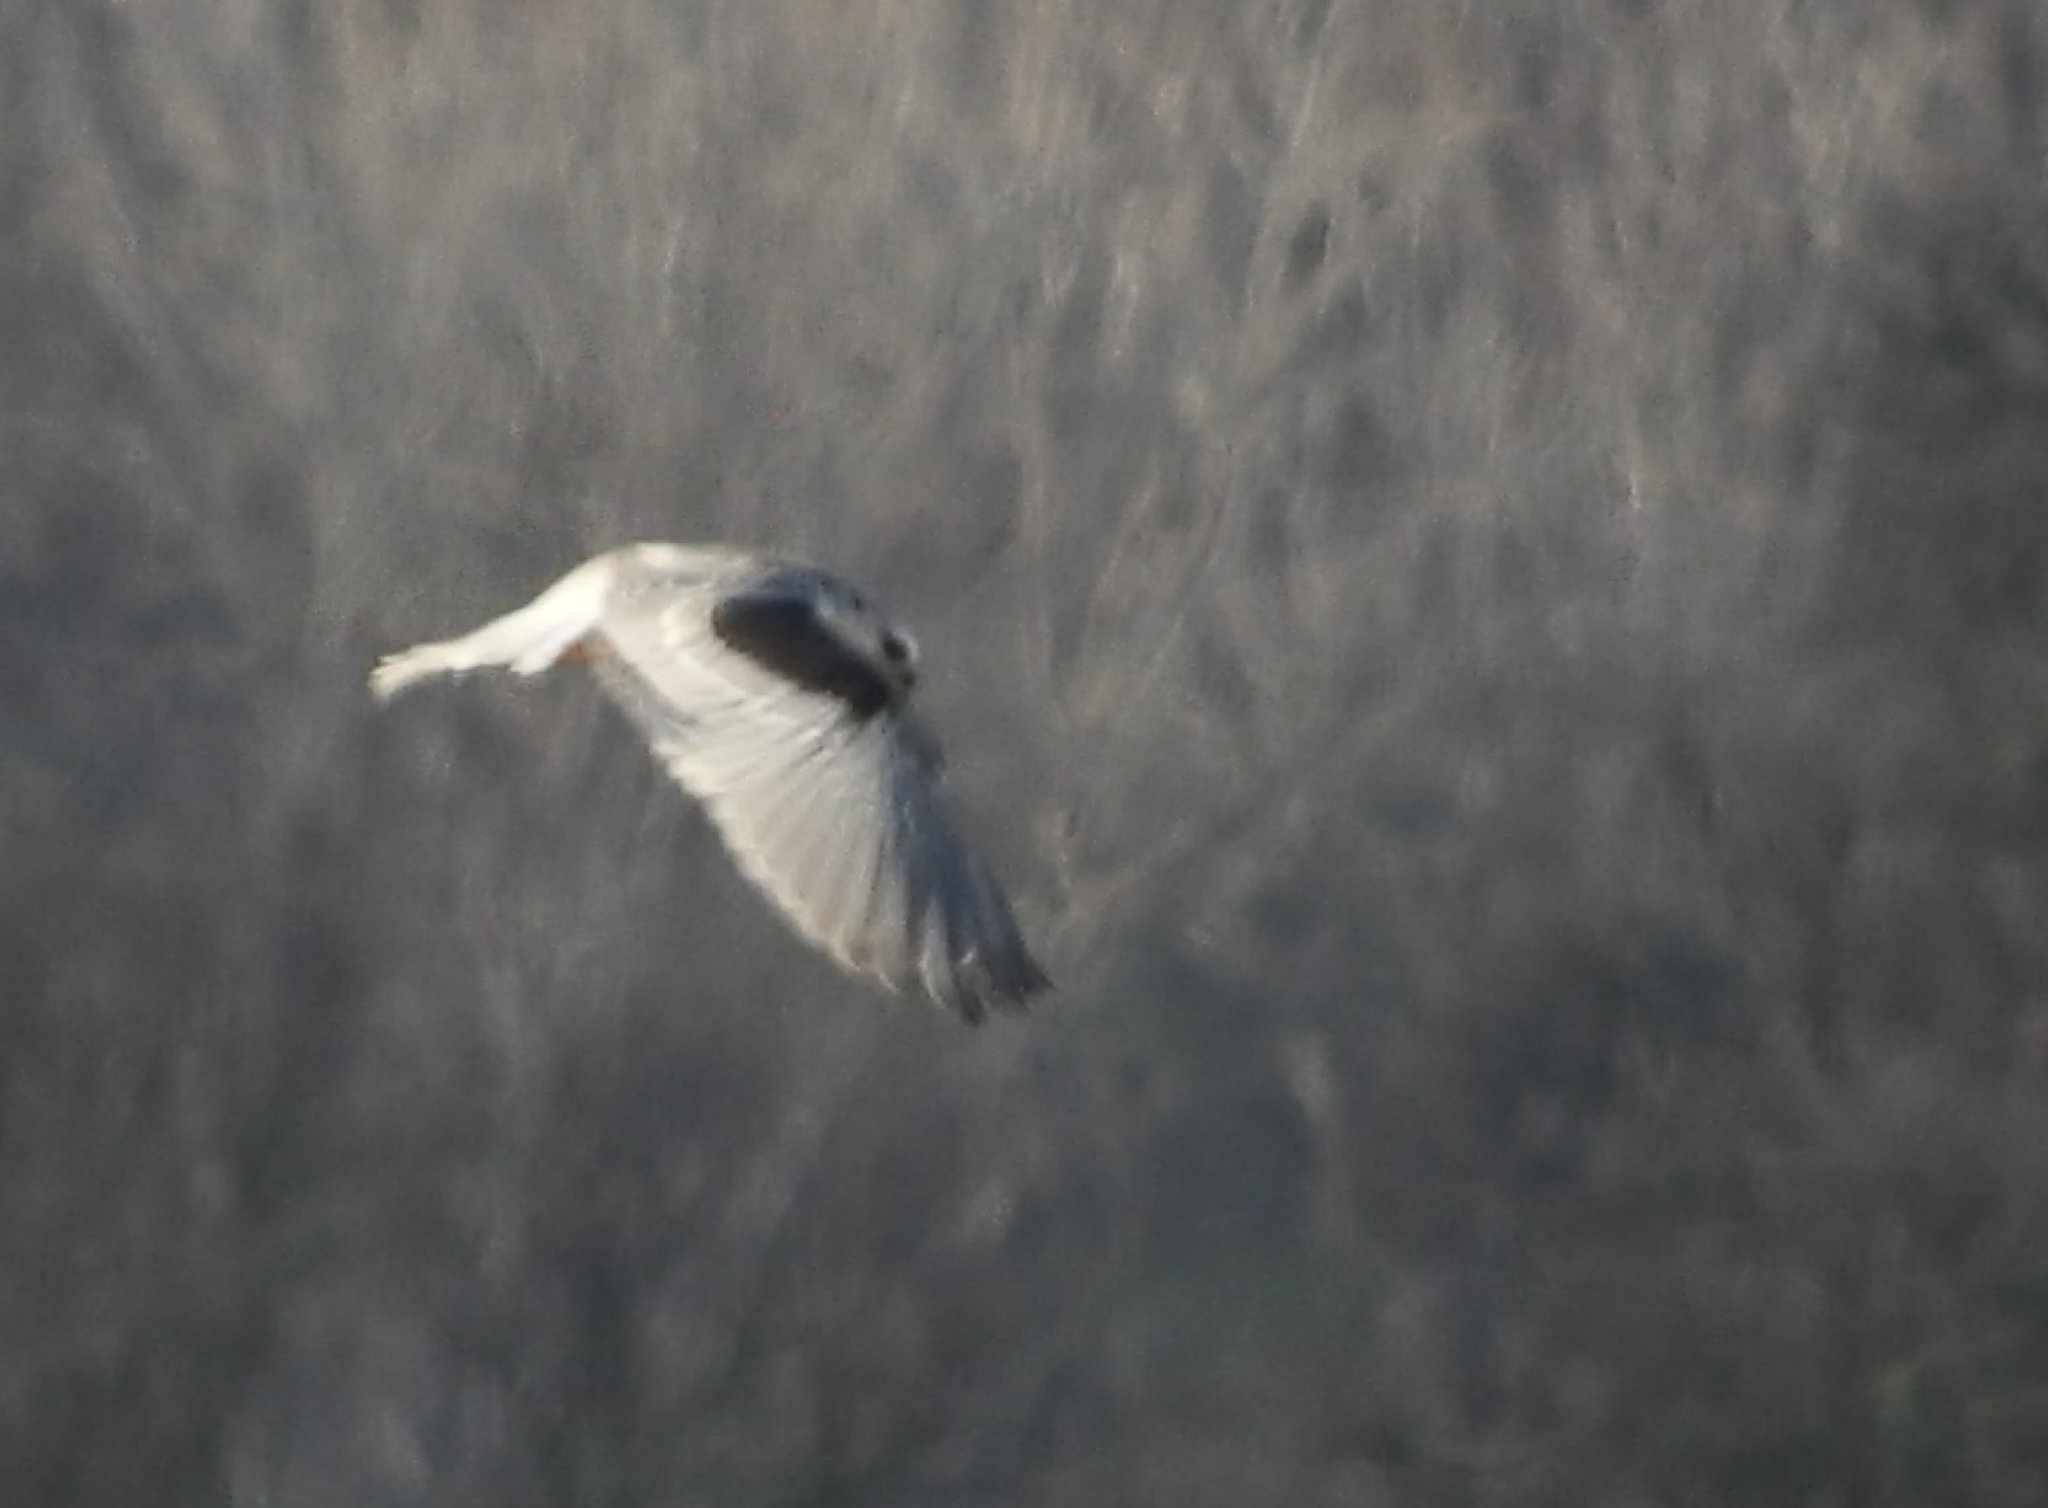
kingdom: Animalia
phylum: Chordata
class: Aves
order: Accipitriformes
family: Accipitridae
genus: Elanus
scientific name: Elanus leucurus
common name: White-tailed kite
